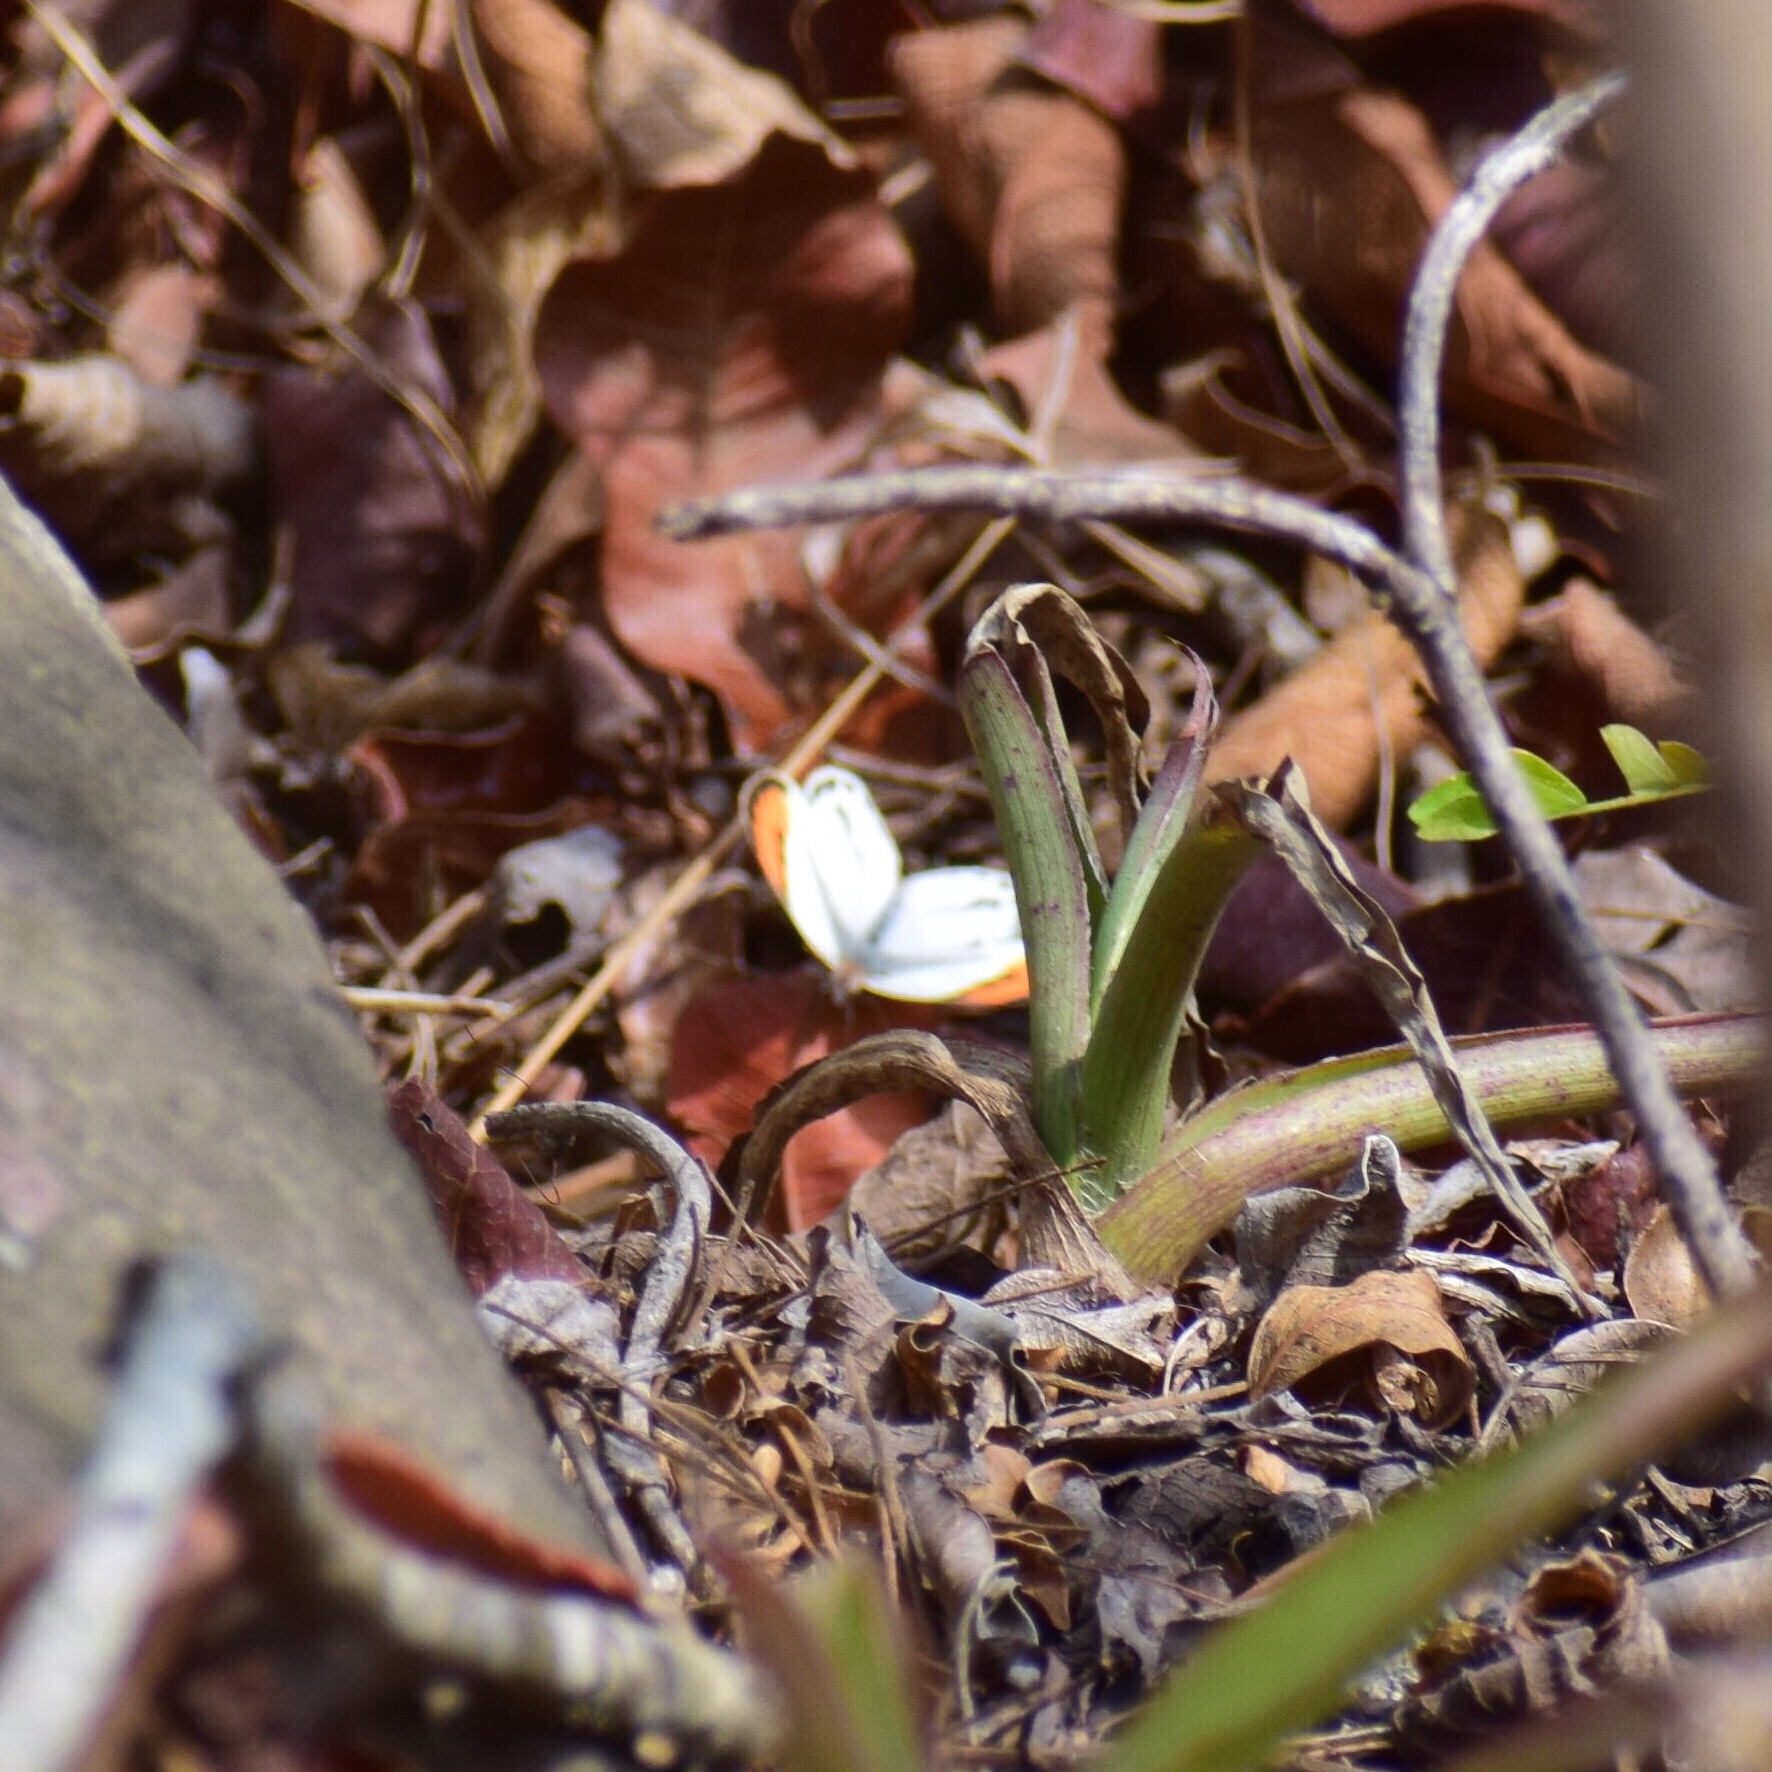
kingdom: Animalia
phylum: Arthropoda
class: Insecta
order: Lepidoptera
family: Pieridae
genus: Colotis
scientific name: Colotis euippe
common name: Round-winged orange tip
